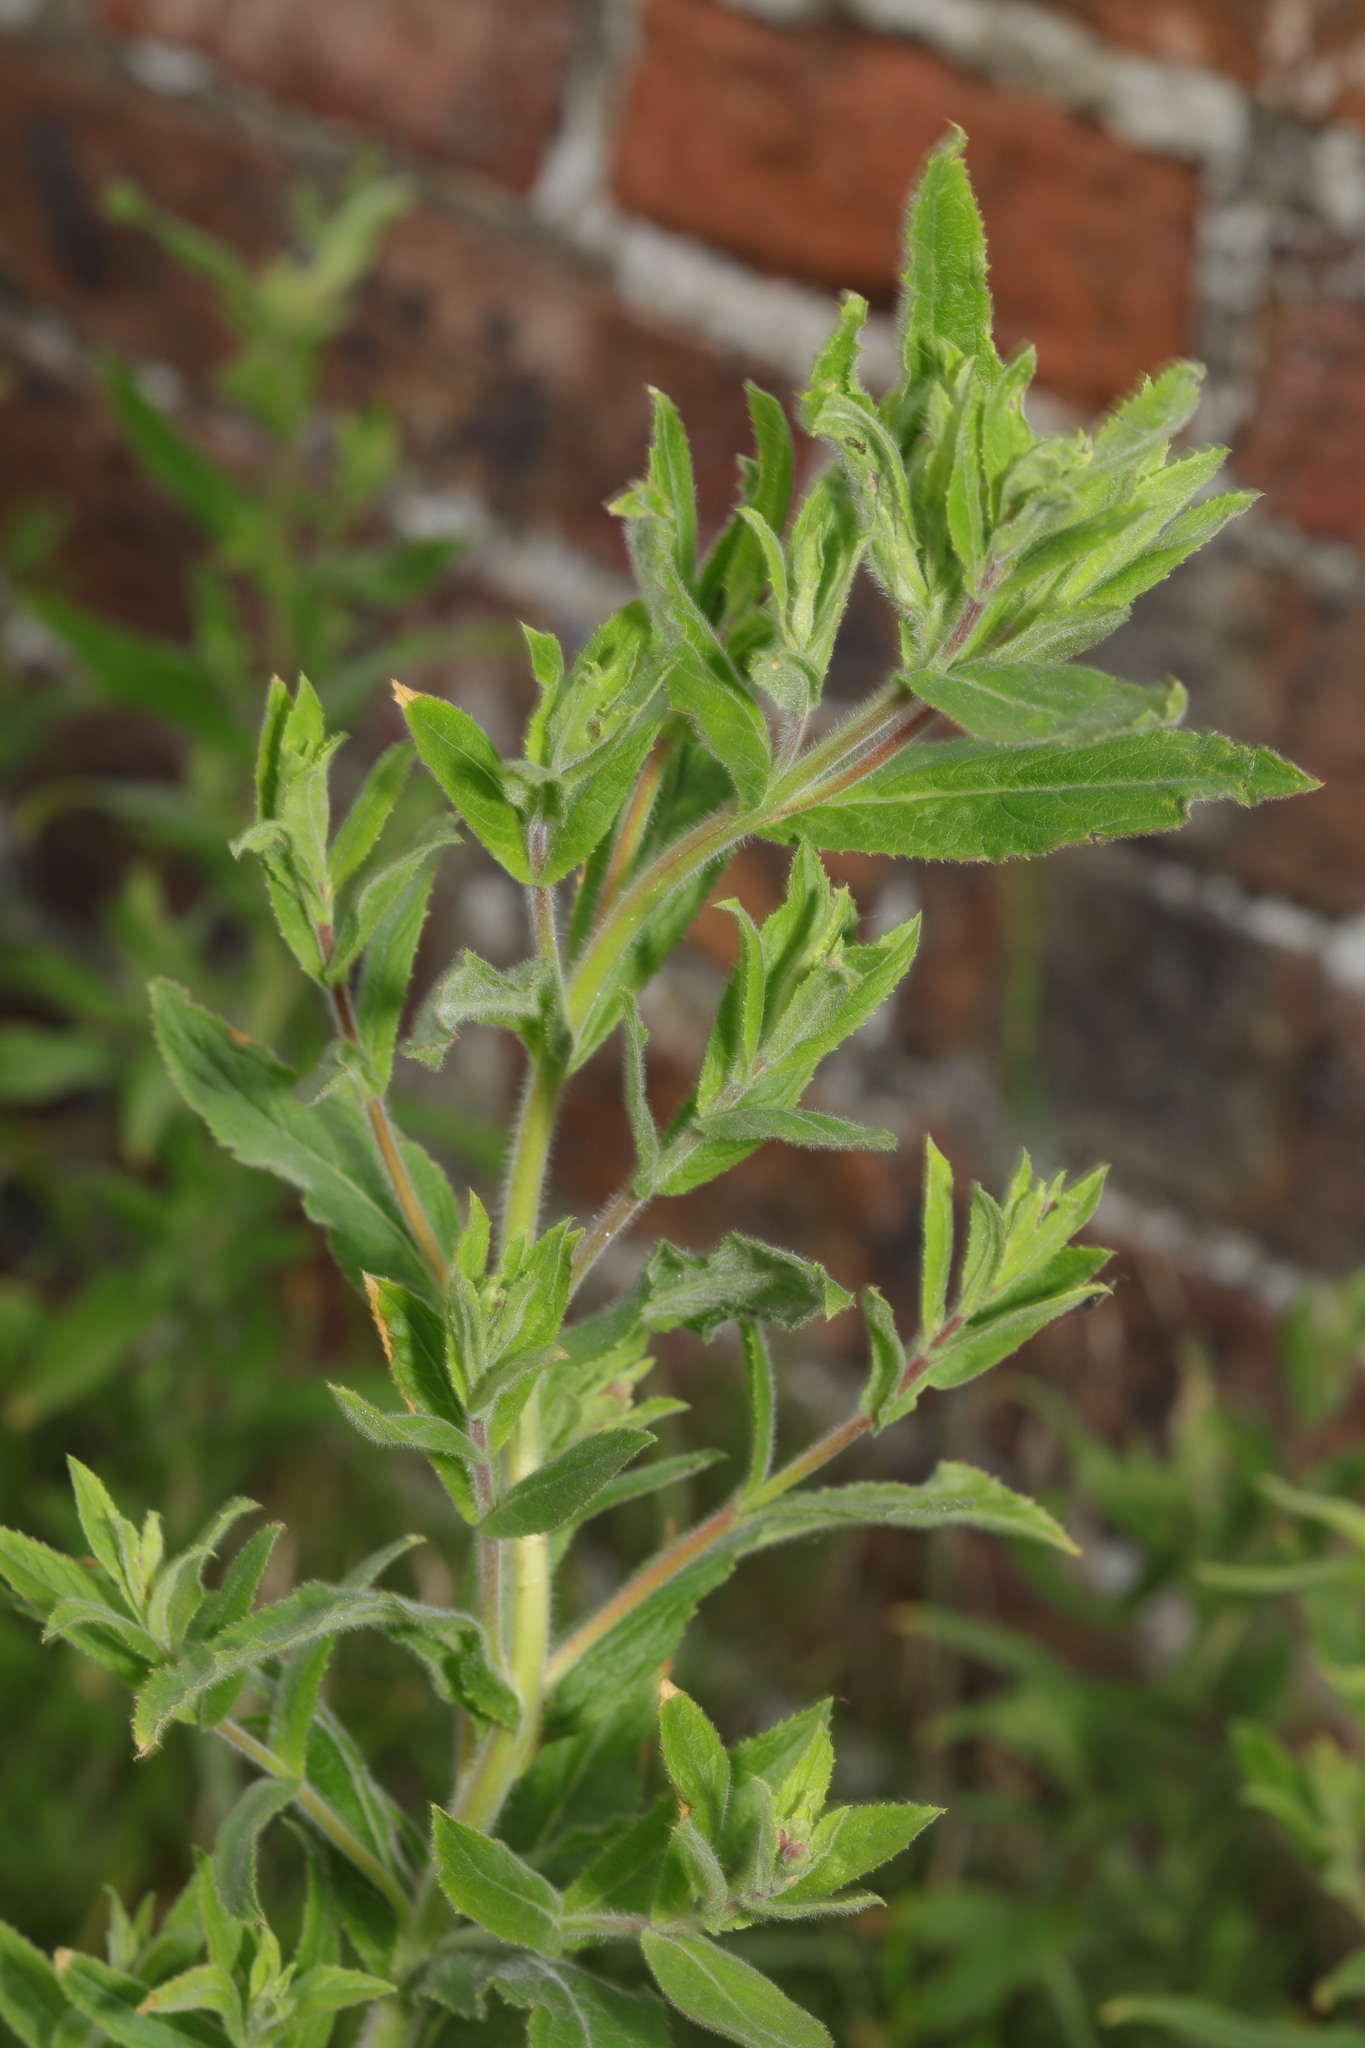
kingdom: Plantae
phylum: Tracheophyta
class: Magnoliopsida
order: Myrtales
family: Onagraceae
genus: Epilobium
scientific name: Epilobium hirsutum
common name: Great willowherb
